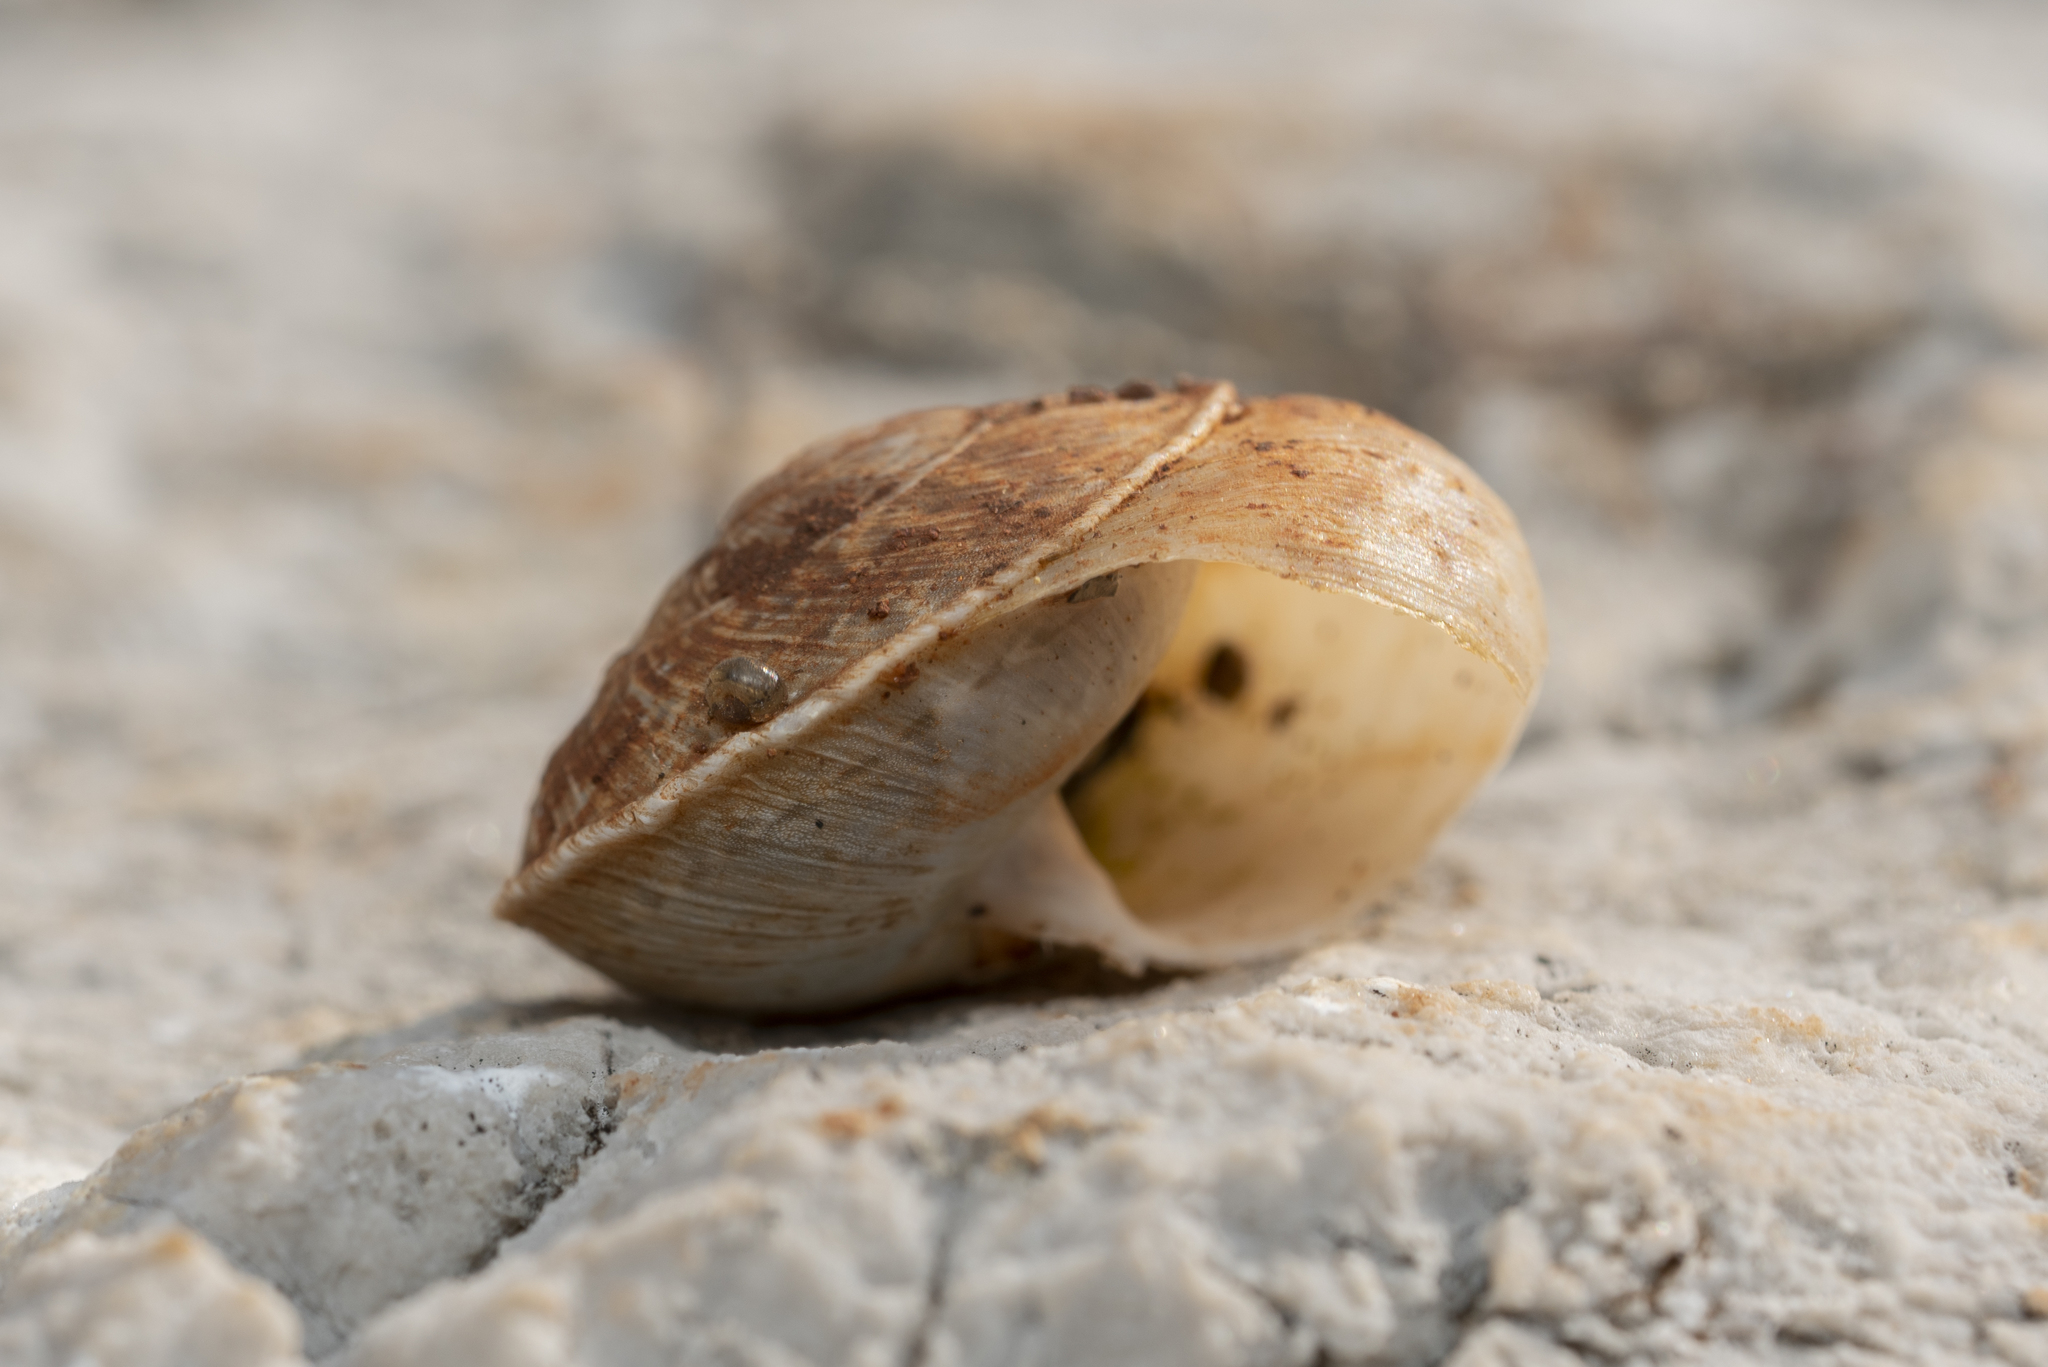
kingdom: Animalia
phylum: Mollusca
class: Gastropoda
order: Stylommatophora
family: Helicidae
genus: Levantina
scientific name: Levantina spiriplana
